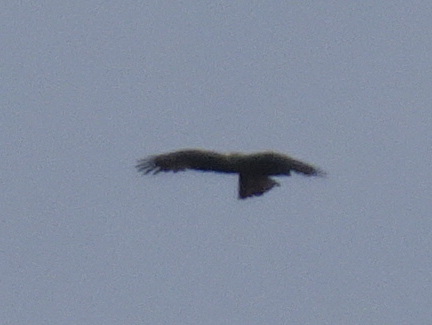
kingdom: Animalia
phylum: Chordata
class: Aves
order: Accipitriformes
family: Accipitridae
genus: Milvus
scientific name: Milvus migrans
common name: Black kite
